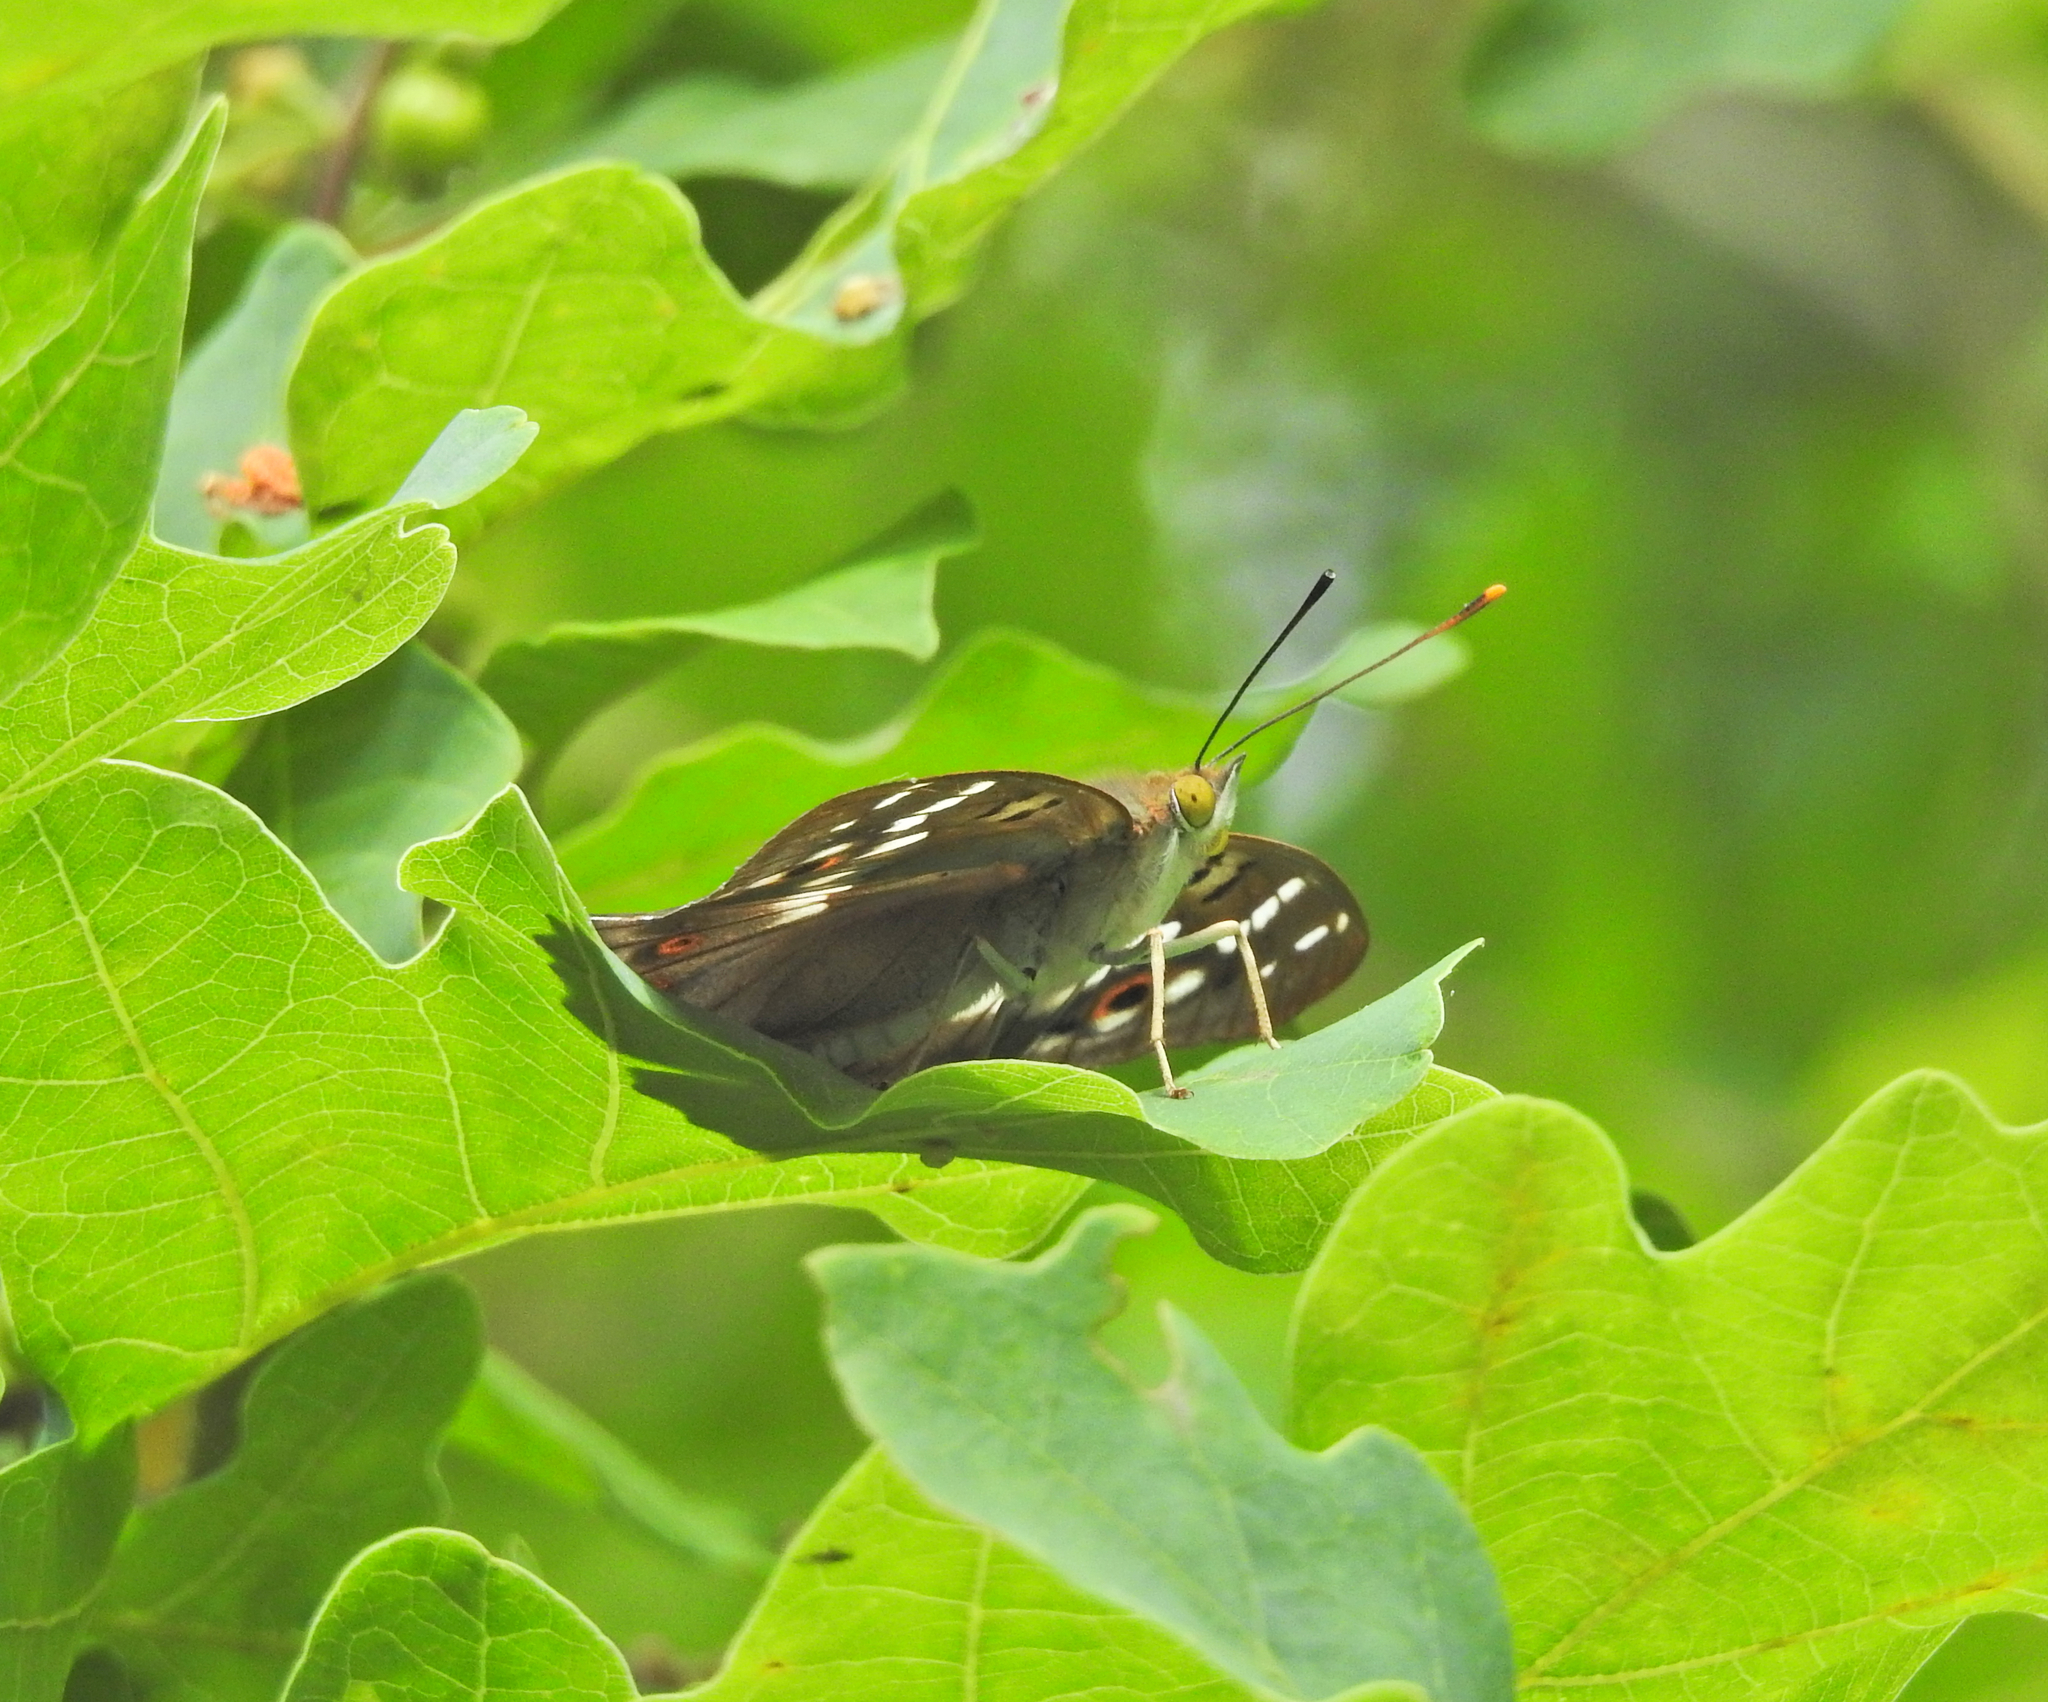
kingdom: Animalia
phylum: Arthropoda
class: Insecta
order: Lepidoptera
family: Nymphalidae
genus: Apatura
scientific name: Apatura ilia
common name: Lesser purple emperor
